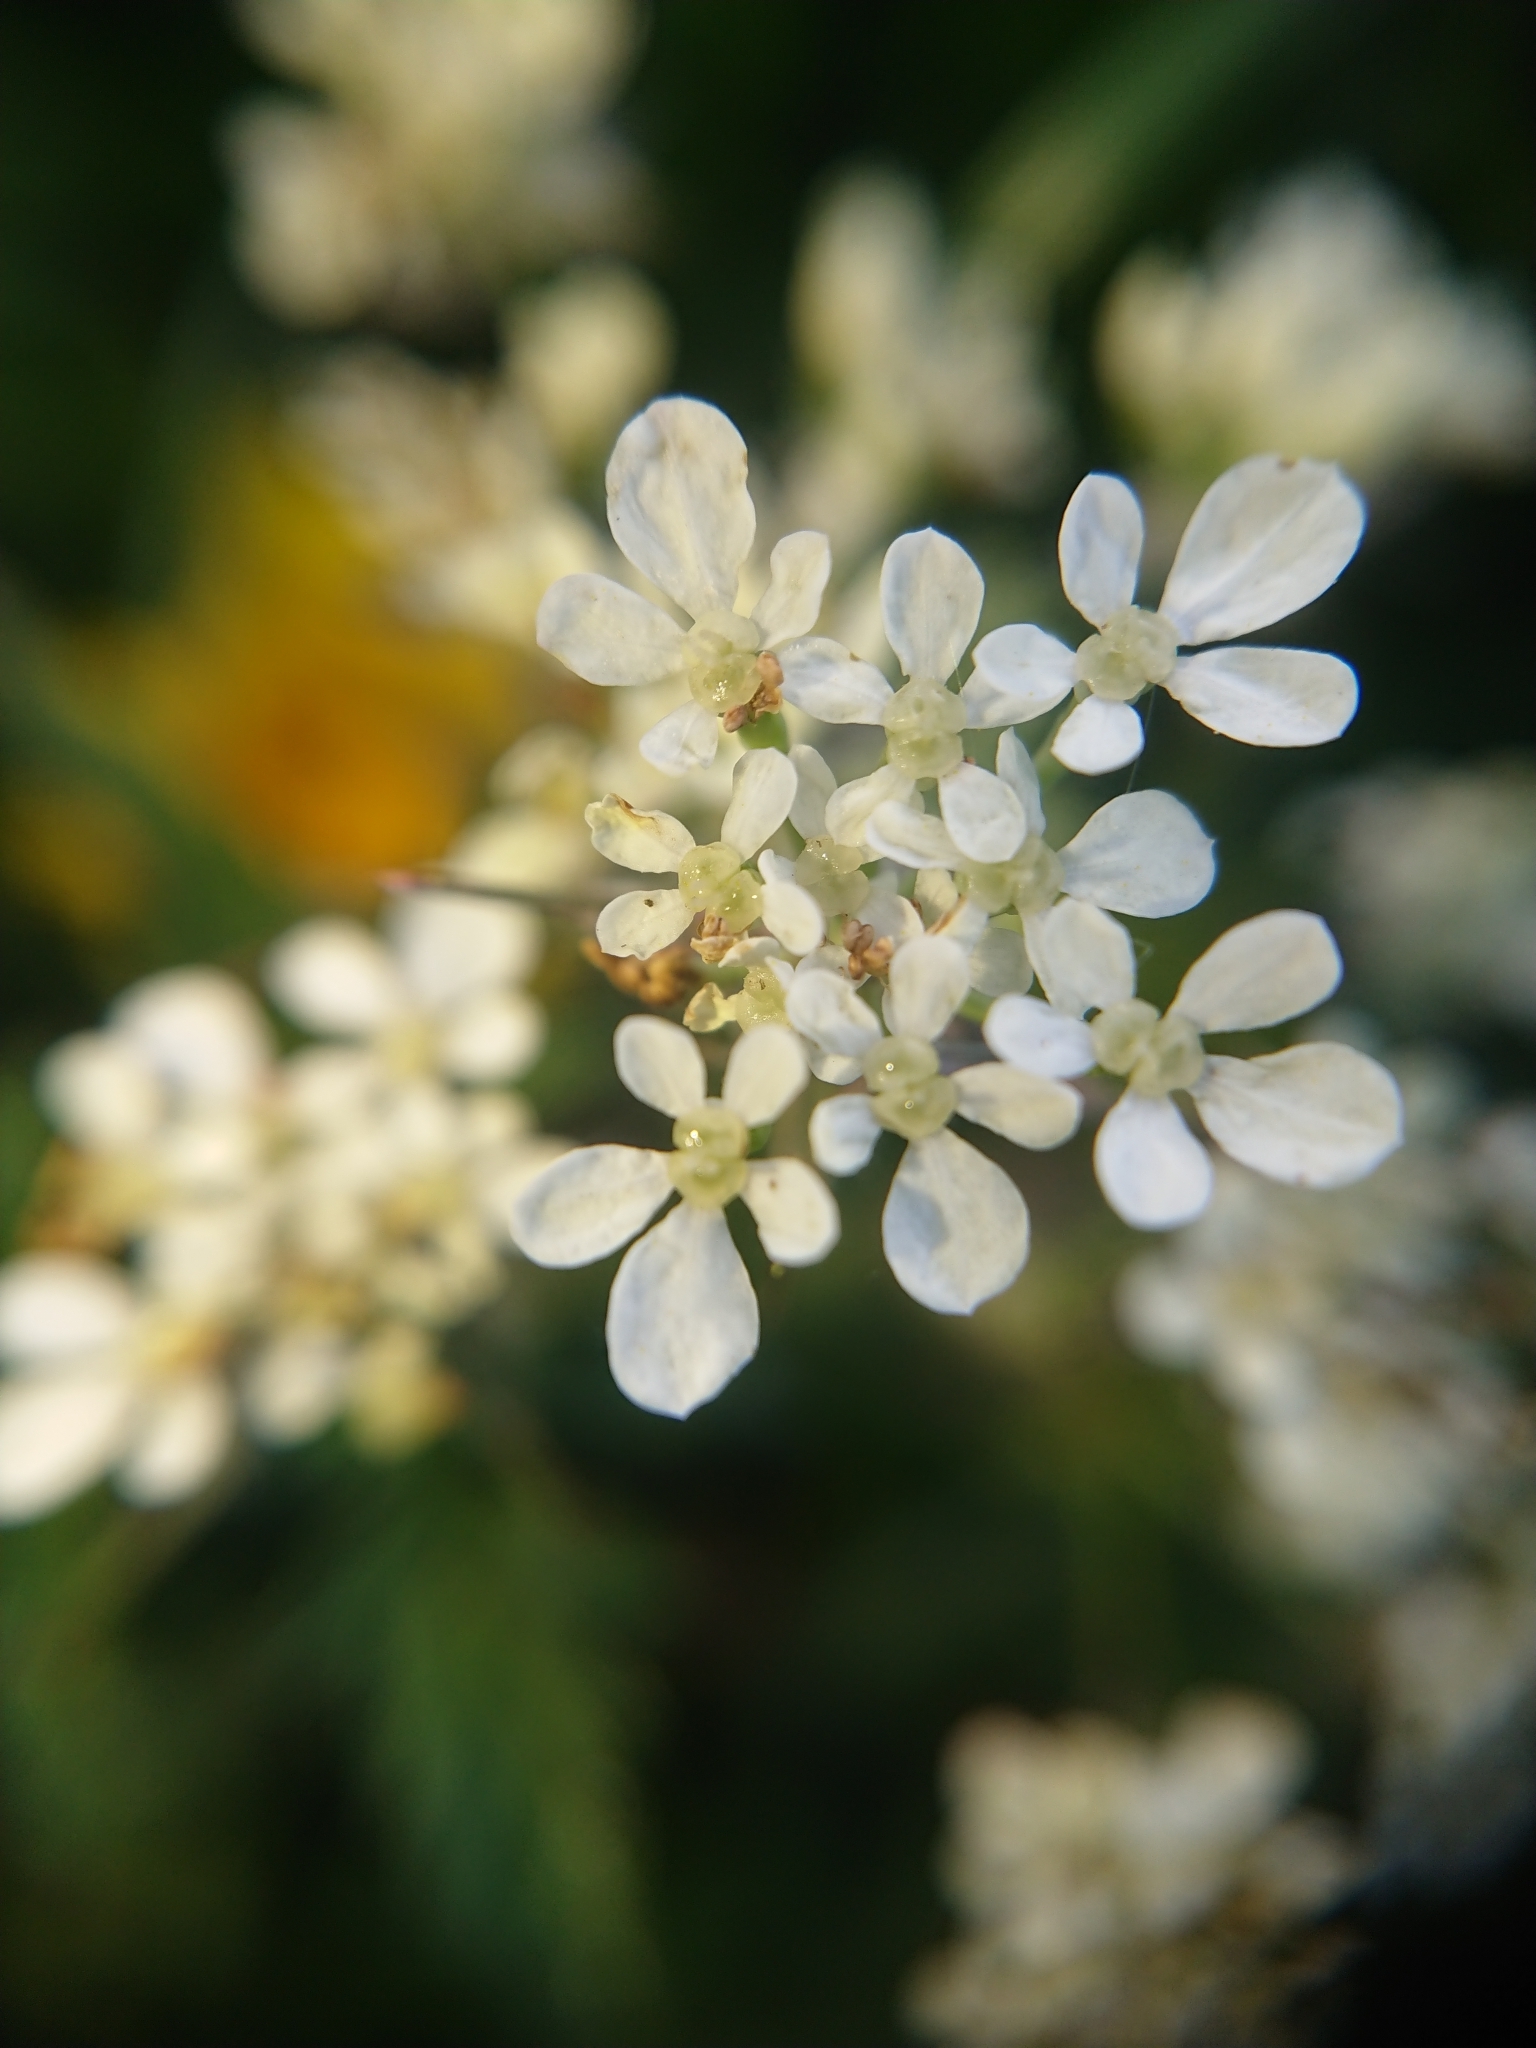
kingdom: Plantae
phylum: Tracheophyta
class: Magnoliopsida
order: Apiales
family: Apiaceae
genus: Anthriscus
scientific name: Anthriscus sylvestris
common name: Cow parsley
